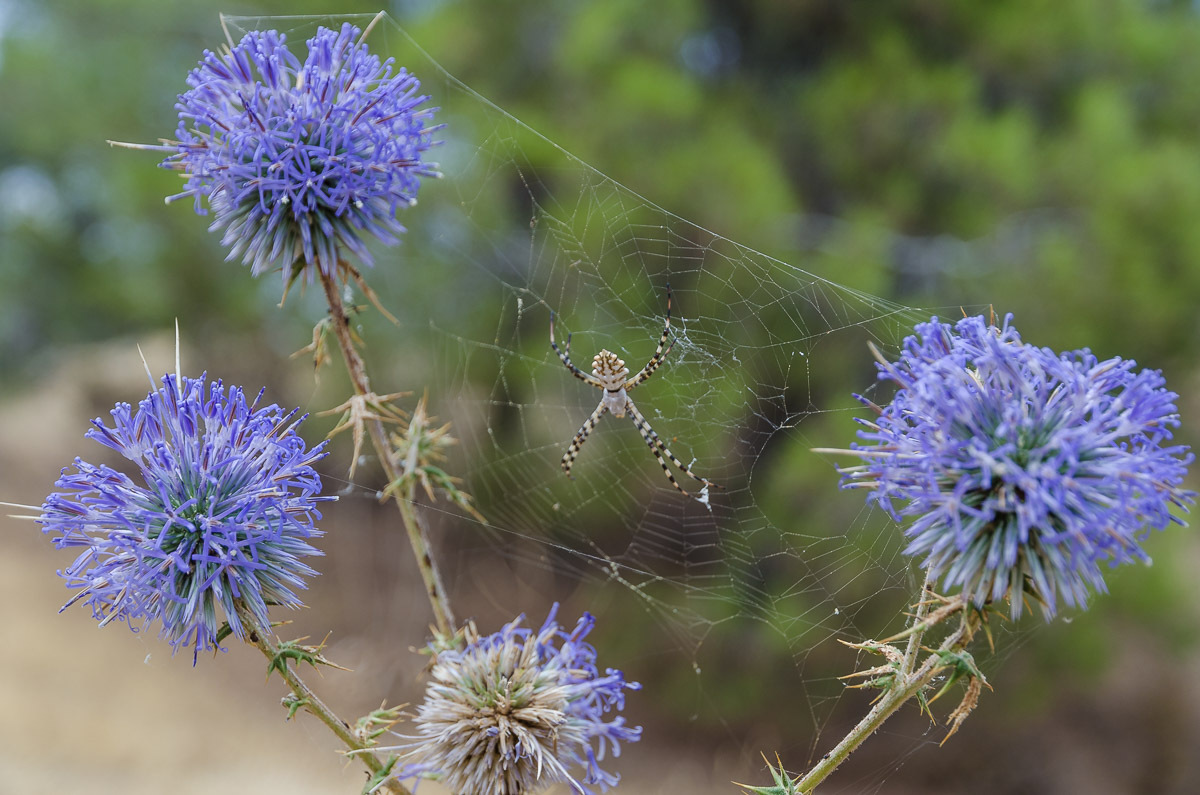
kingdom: Animalia
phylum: Arthropoda
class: Arachnida
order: Araneae
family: Araneidae
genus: Argiope
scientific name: Argiope lobata
